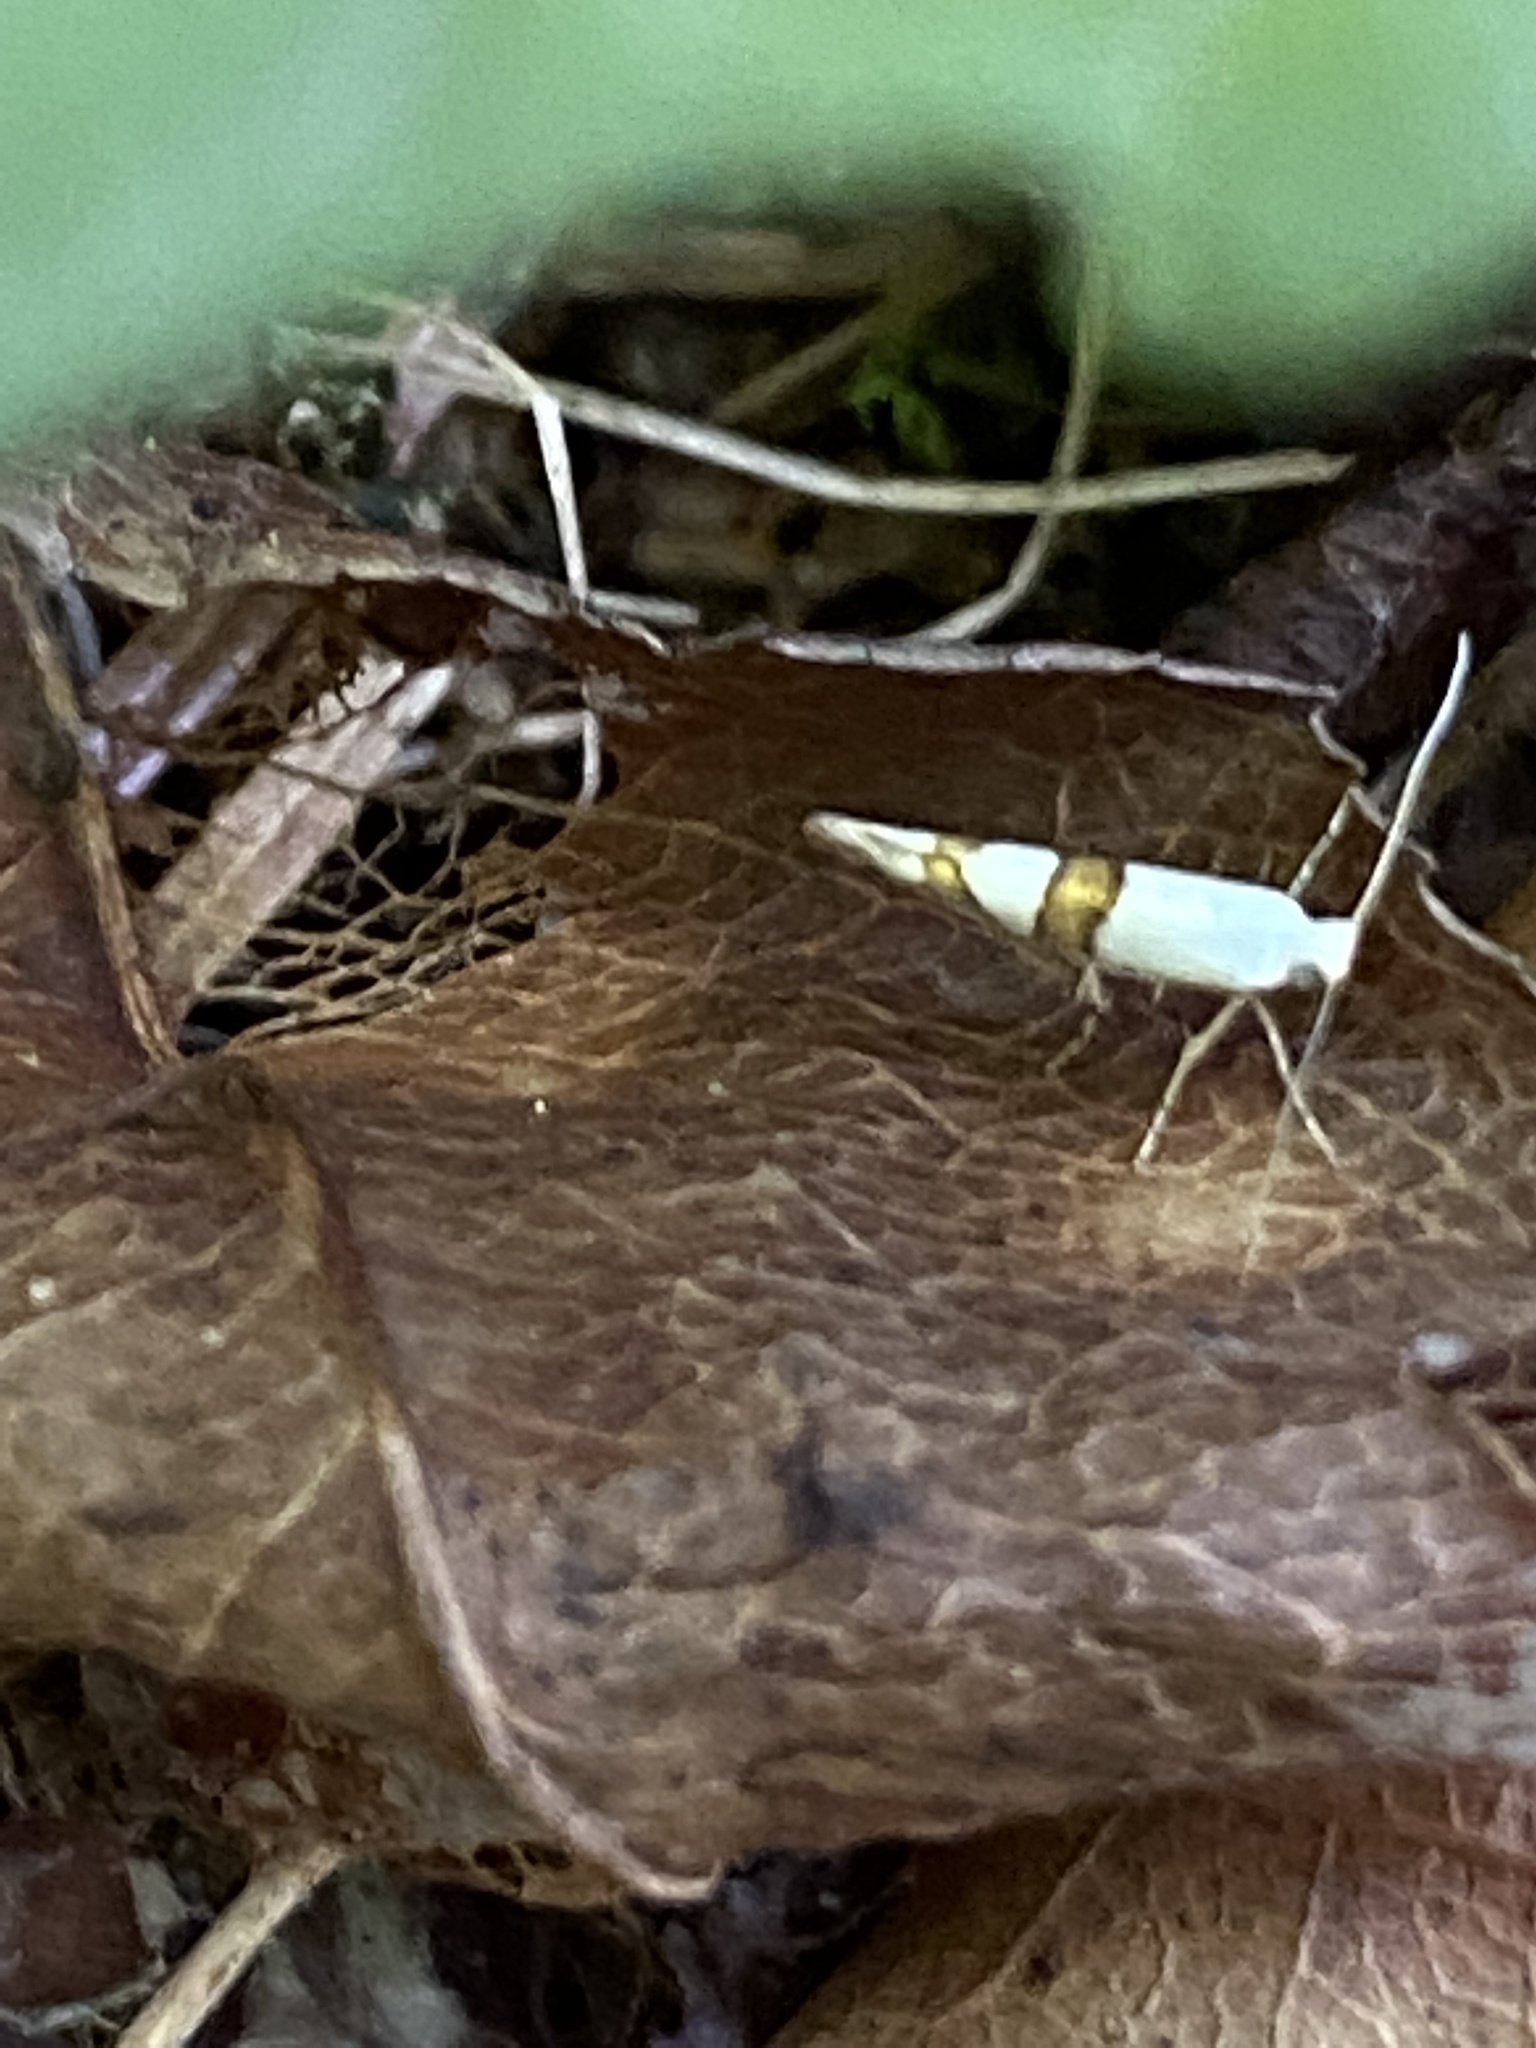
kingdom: Animalia
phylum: Arthropoda
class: Insecta
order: Lepidoptera
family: Argyresthiidae
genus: Argyresthia
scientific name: Argyresthia oreasella
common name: Cherry shoot borer moth
